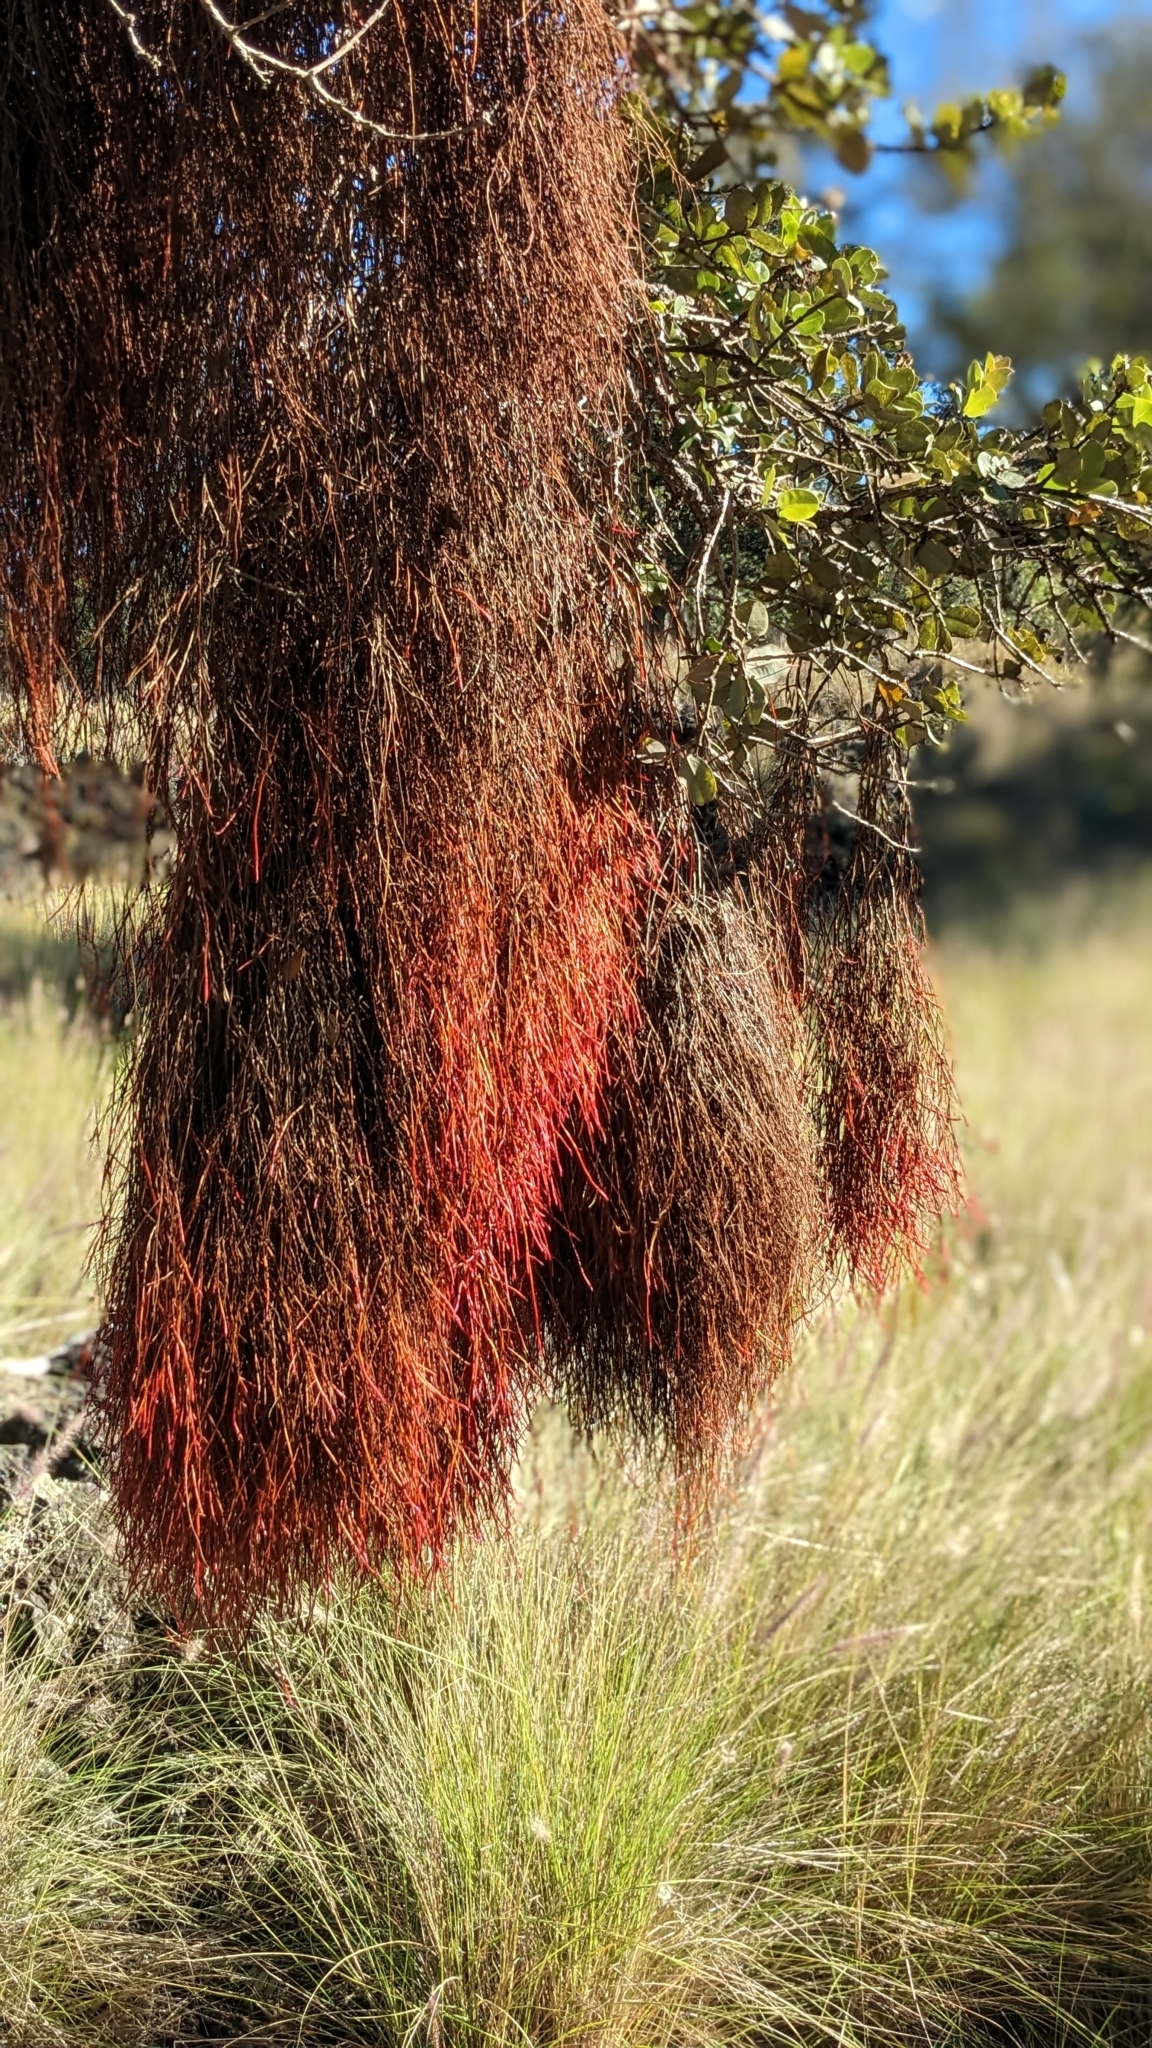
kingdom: Plantae
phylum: Tracheophyta
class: Magnoliopsida
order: Myrtales
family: Myrtaceae
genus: Metrosideros
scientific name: Metrosideros polymorpha
